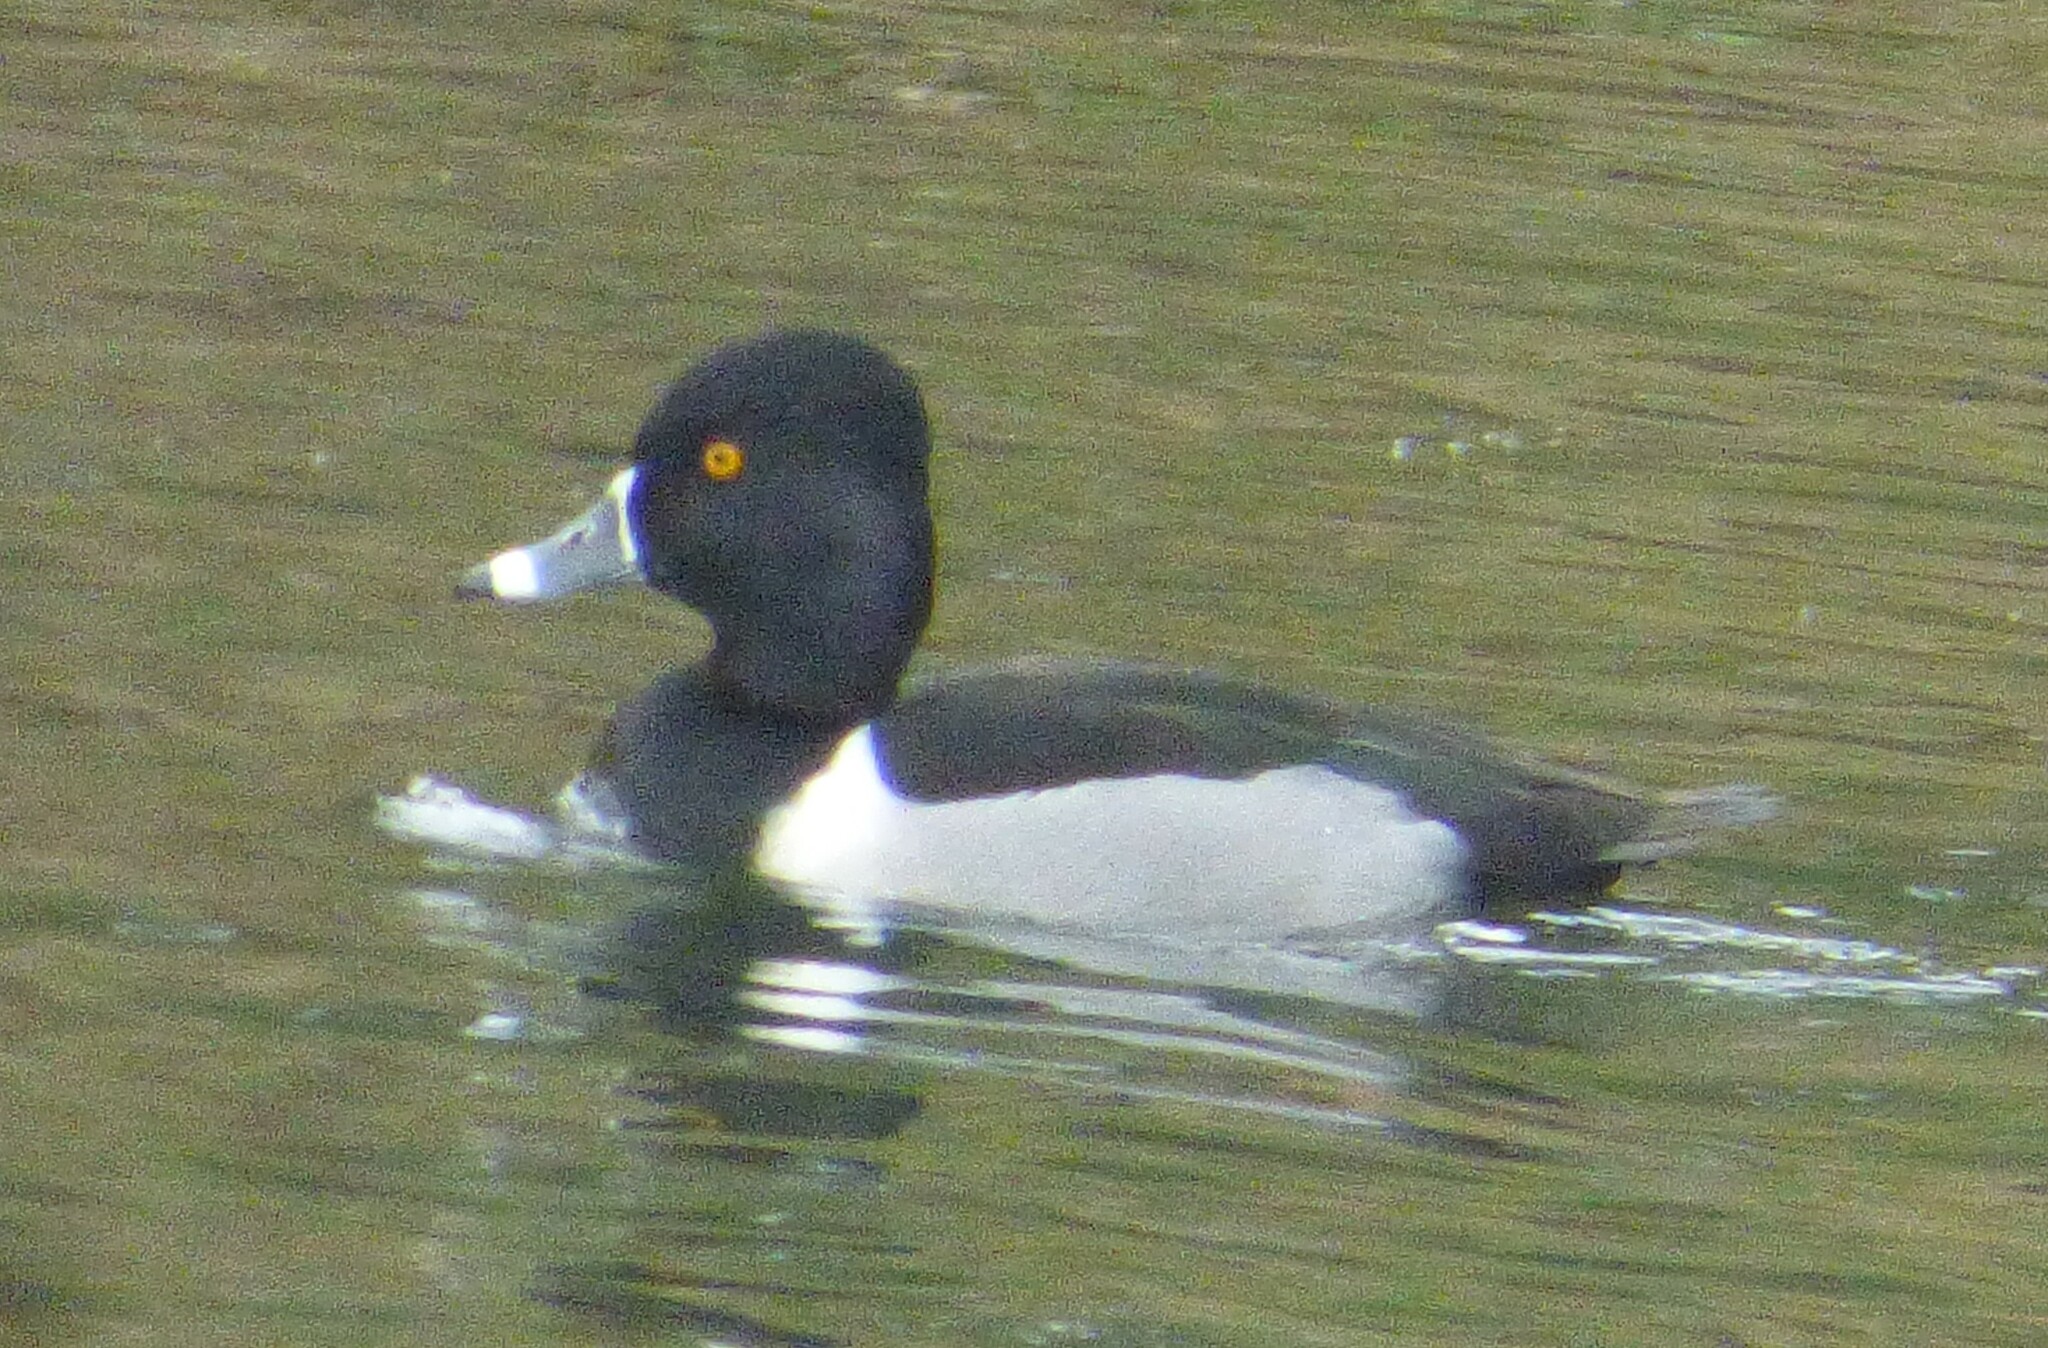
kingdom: Animalia
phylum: Chordata
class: Aves
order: Anseriformes
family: Anatidae
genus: Aythya
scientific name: Aythya collaris
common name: Ring-necked duck
